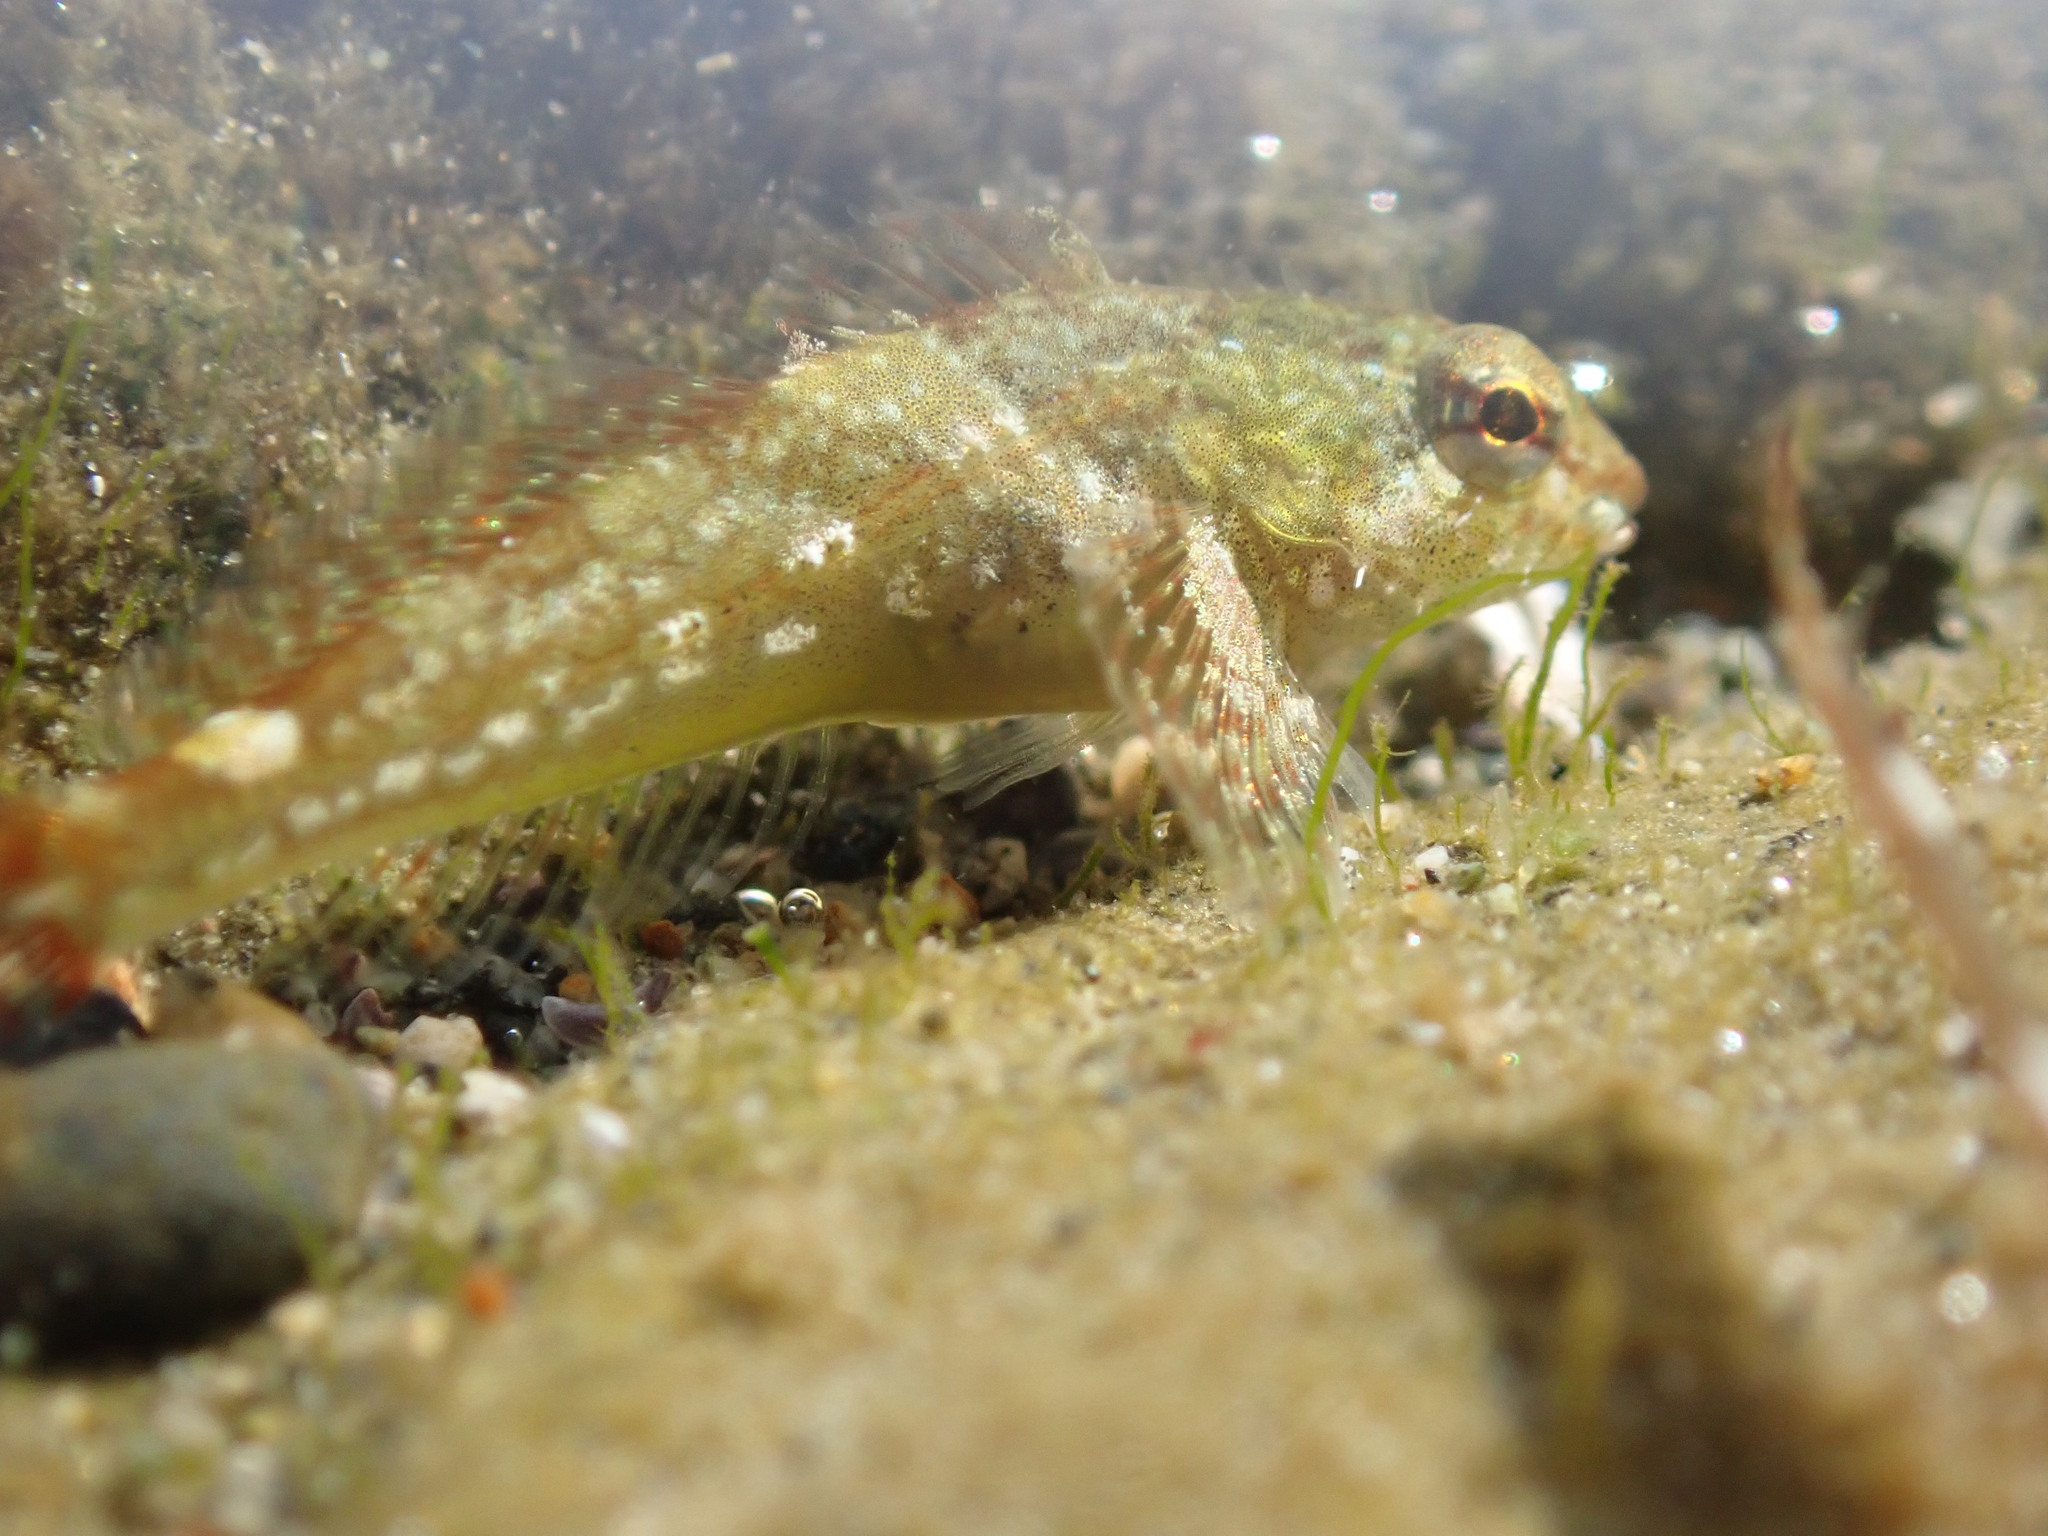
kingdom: Animalia
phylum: Chordata
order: Scorpaeniformes
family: Cottidae
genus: Oligocottus
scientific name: Oligocottus maculosus
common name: Tidepool sculpin
